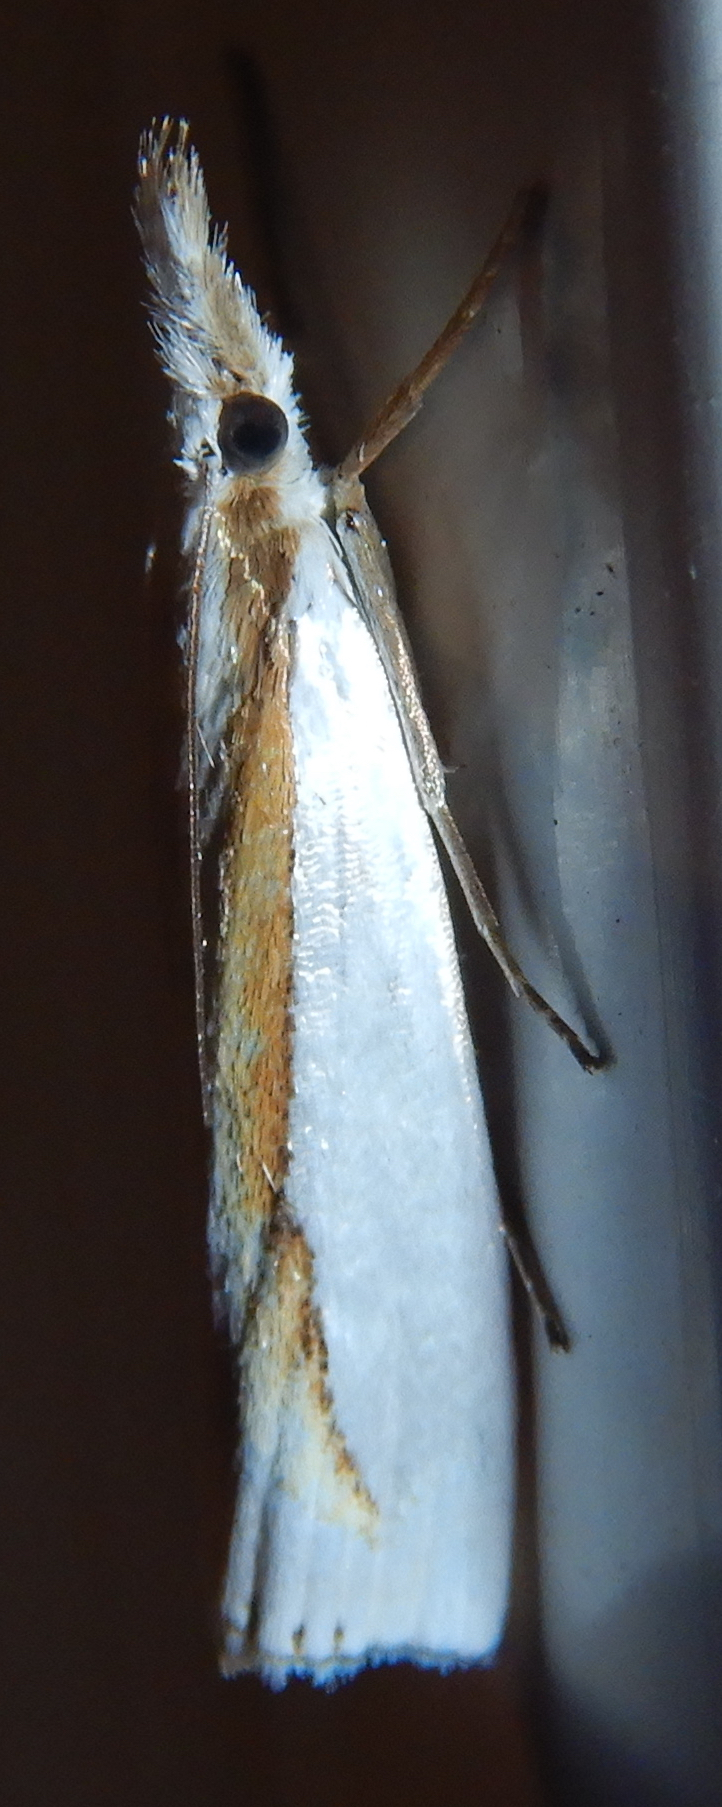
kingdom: Animalia
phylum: Arthropoda
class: Insecta
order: Lepidoptera
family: Crambidae
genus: Crambus
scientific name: Crambus girardellus
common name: Girard's grass-veneer
